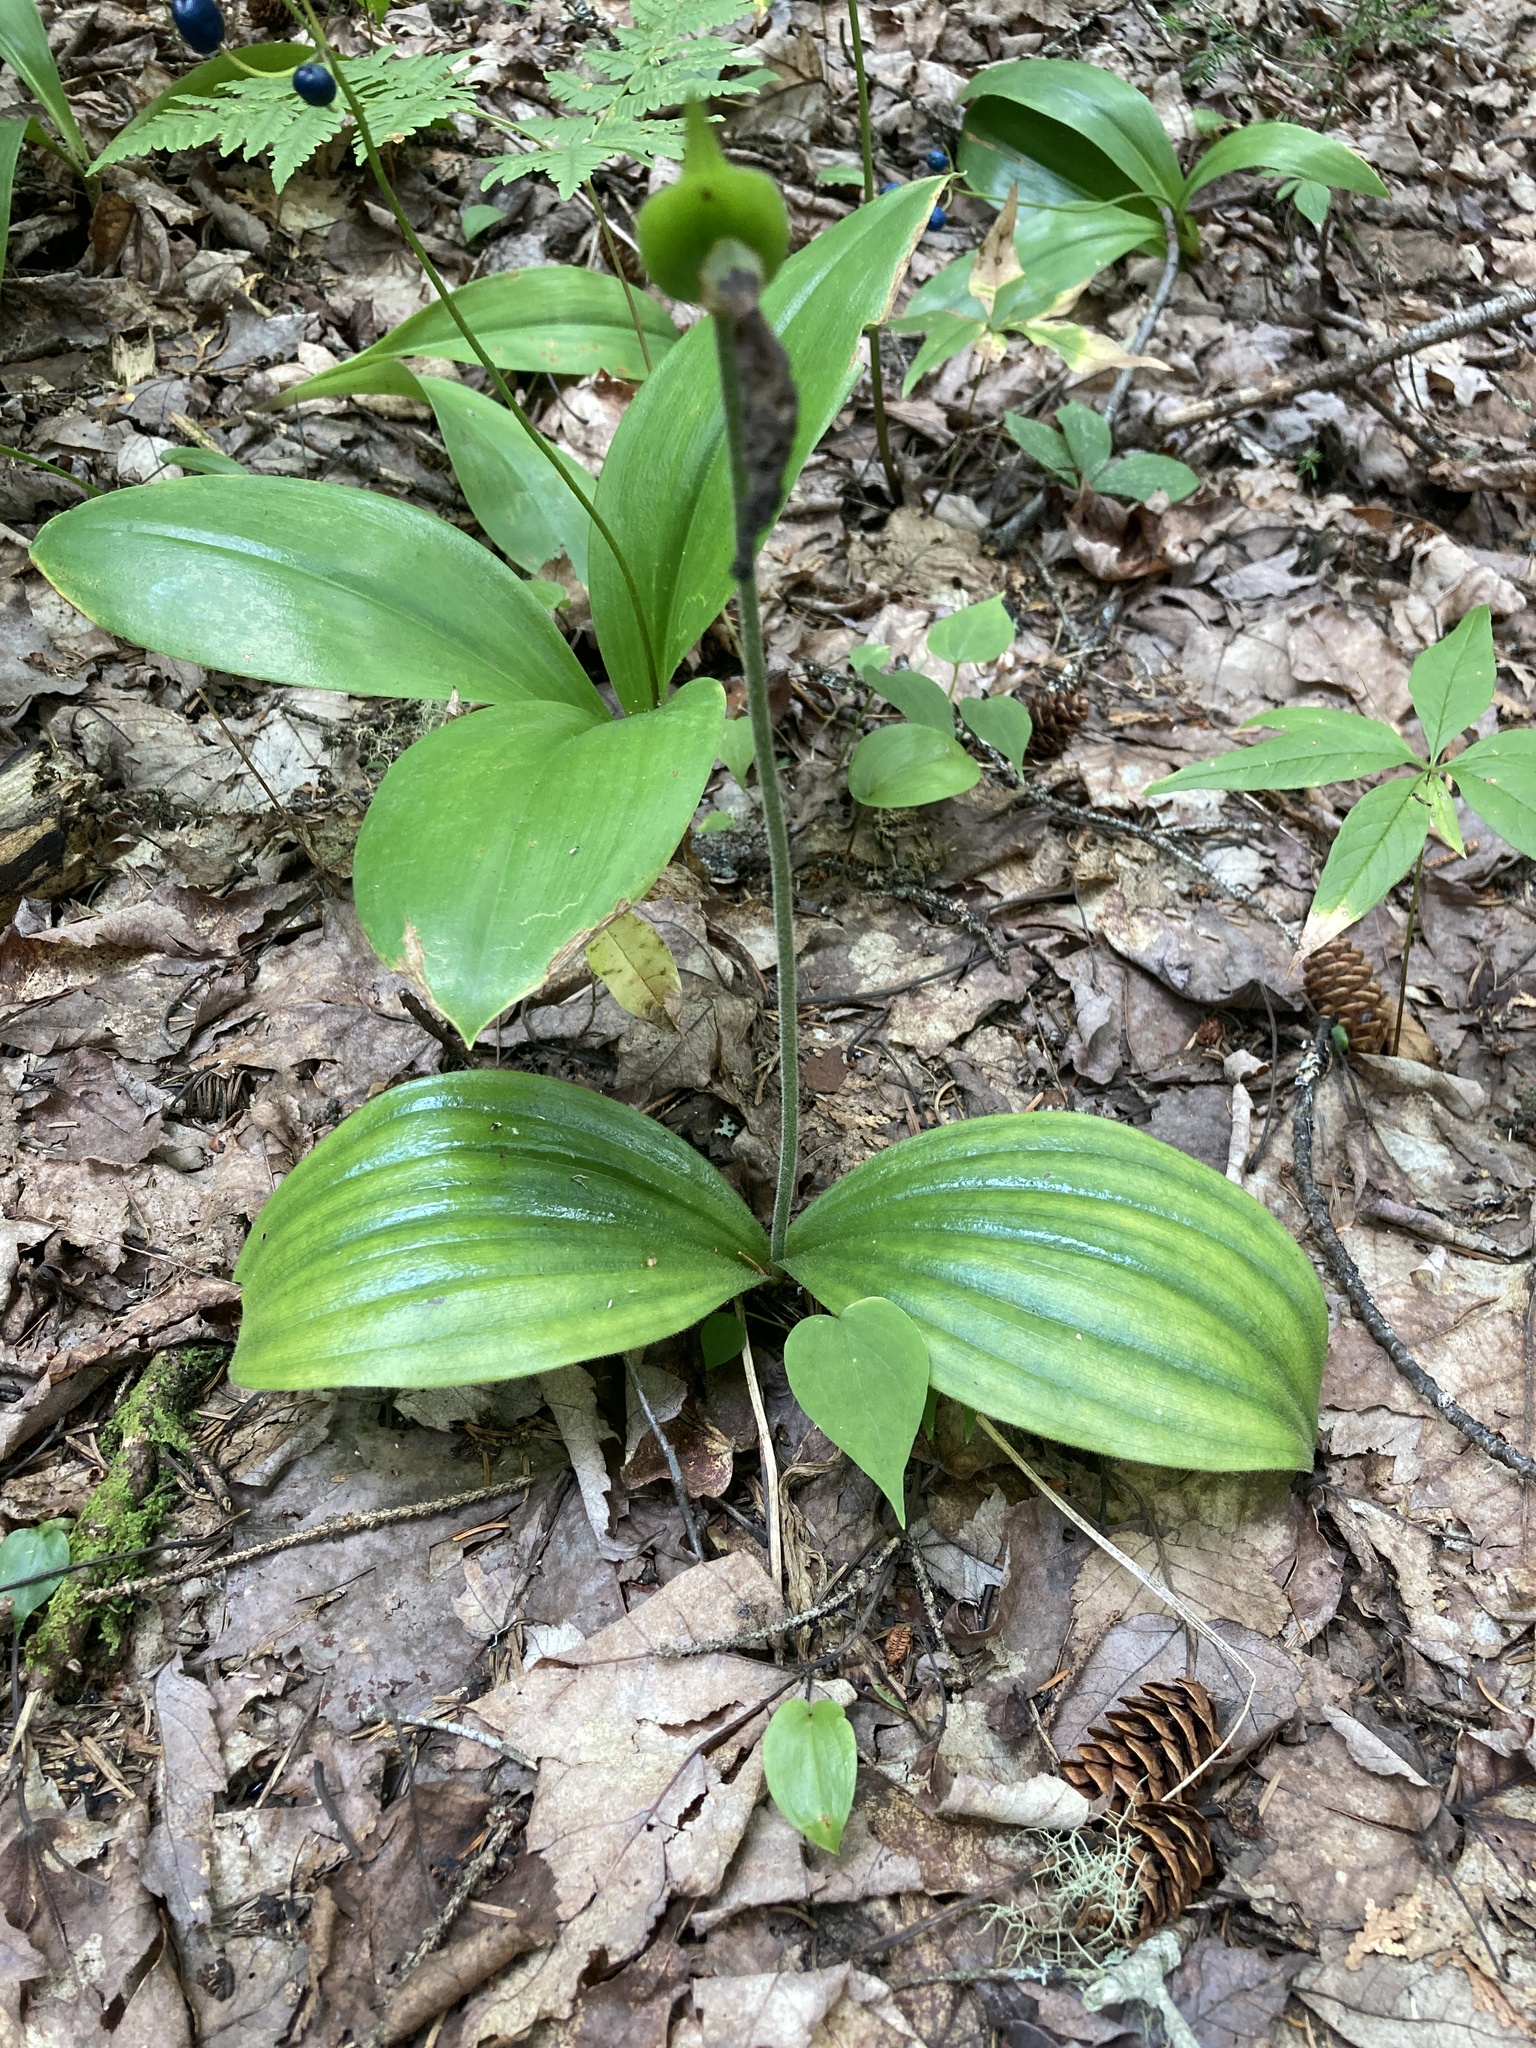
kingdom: Plantae
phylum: Tracheophyta
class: Liliopsida
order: Asparagales
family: Orchidaceae
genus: Cypripedium
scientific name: Cypripedium acaule
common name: Pink lady's-slipper
